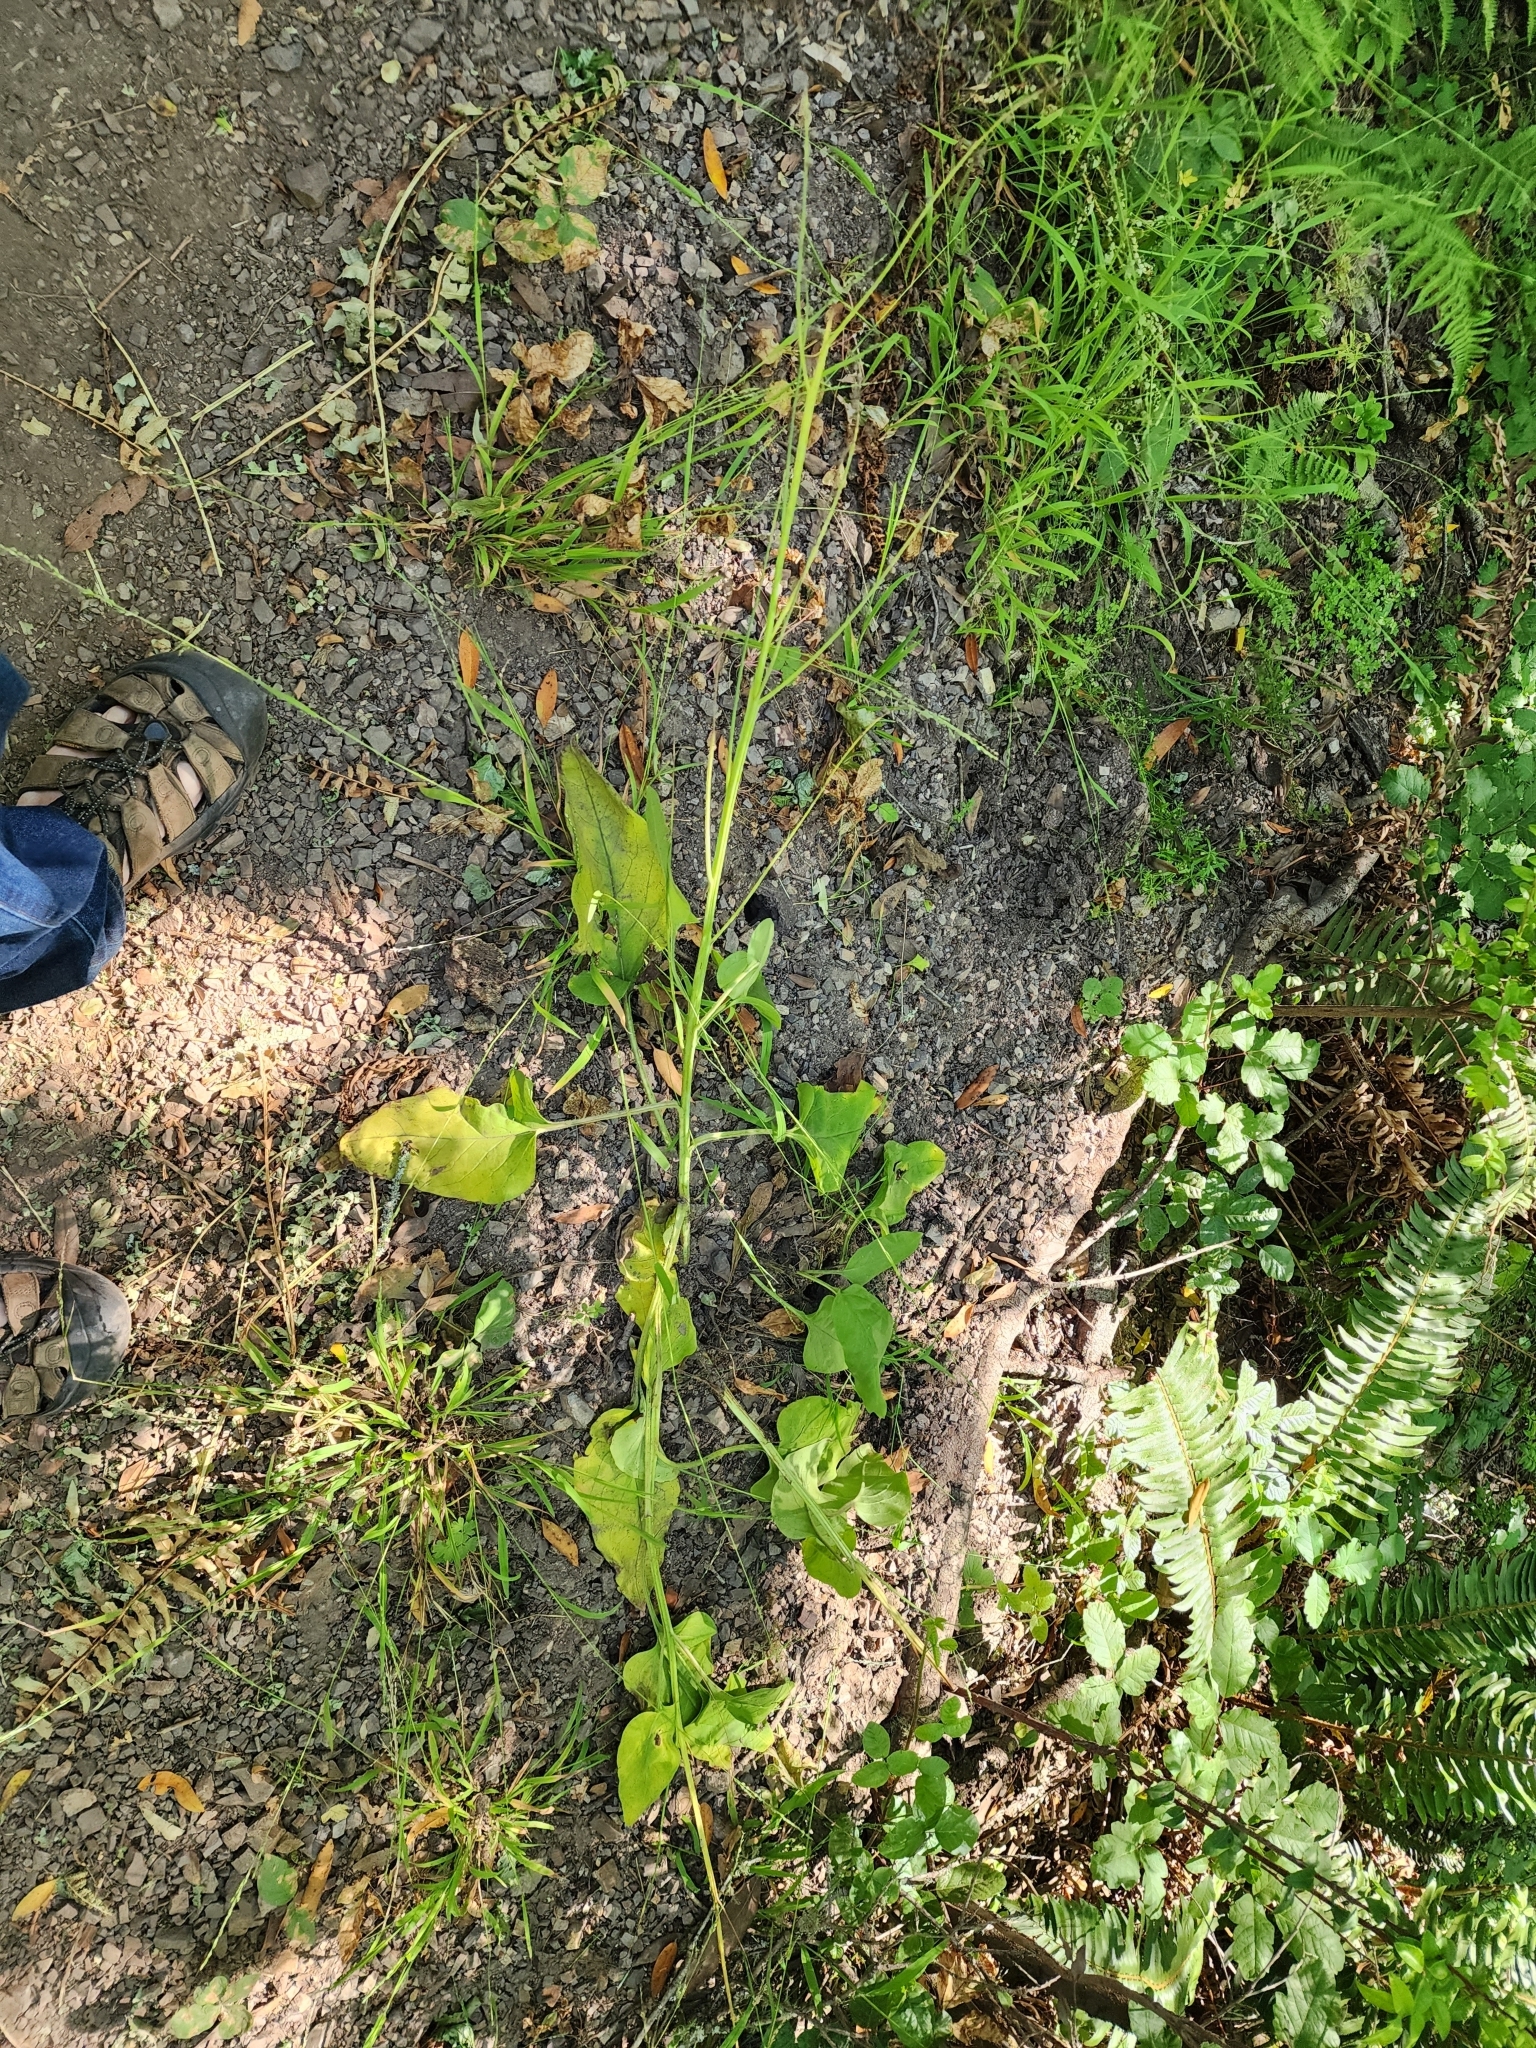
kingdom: Plantae
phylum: Tracheophyta
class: Magnoliopsida
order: Boraginales
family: Boraginaceae
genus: Adelinia
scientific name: Adelinia grande
